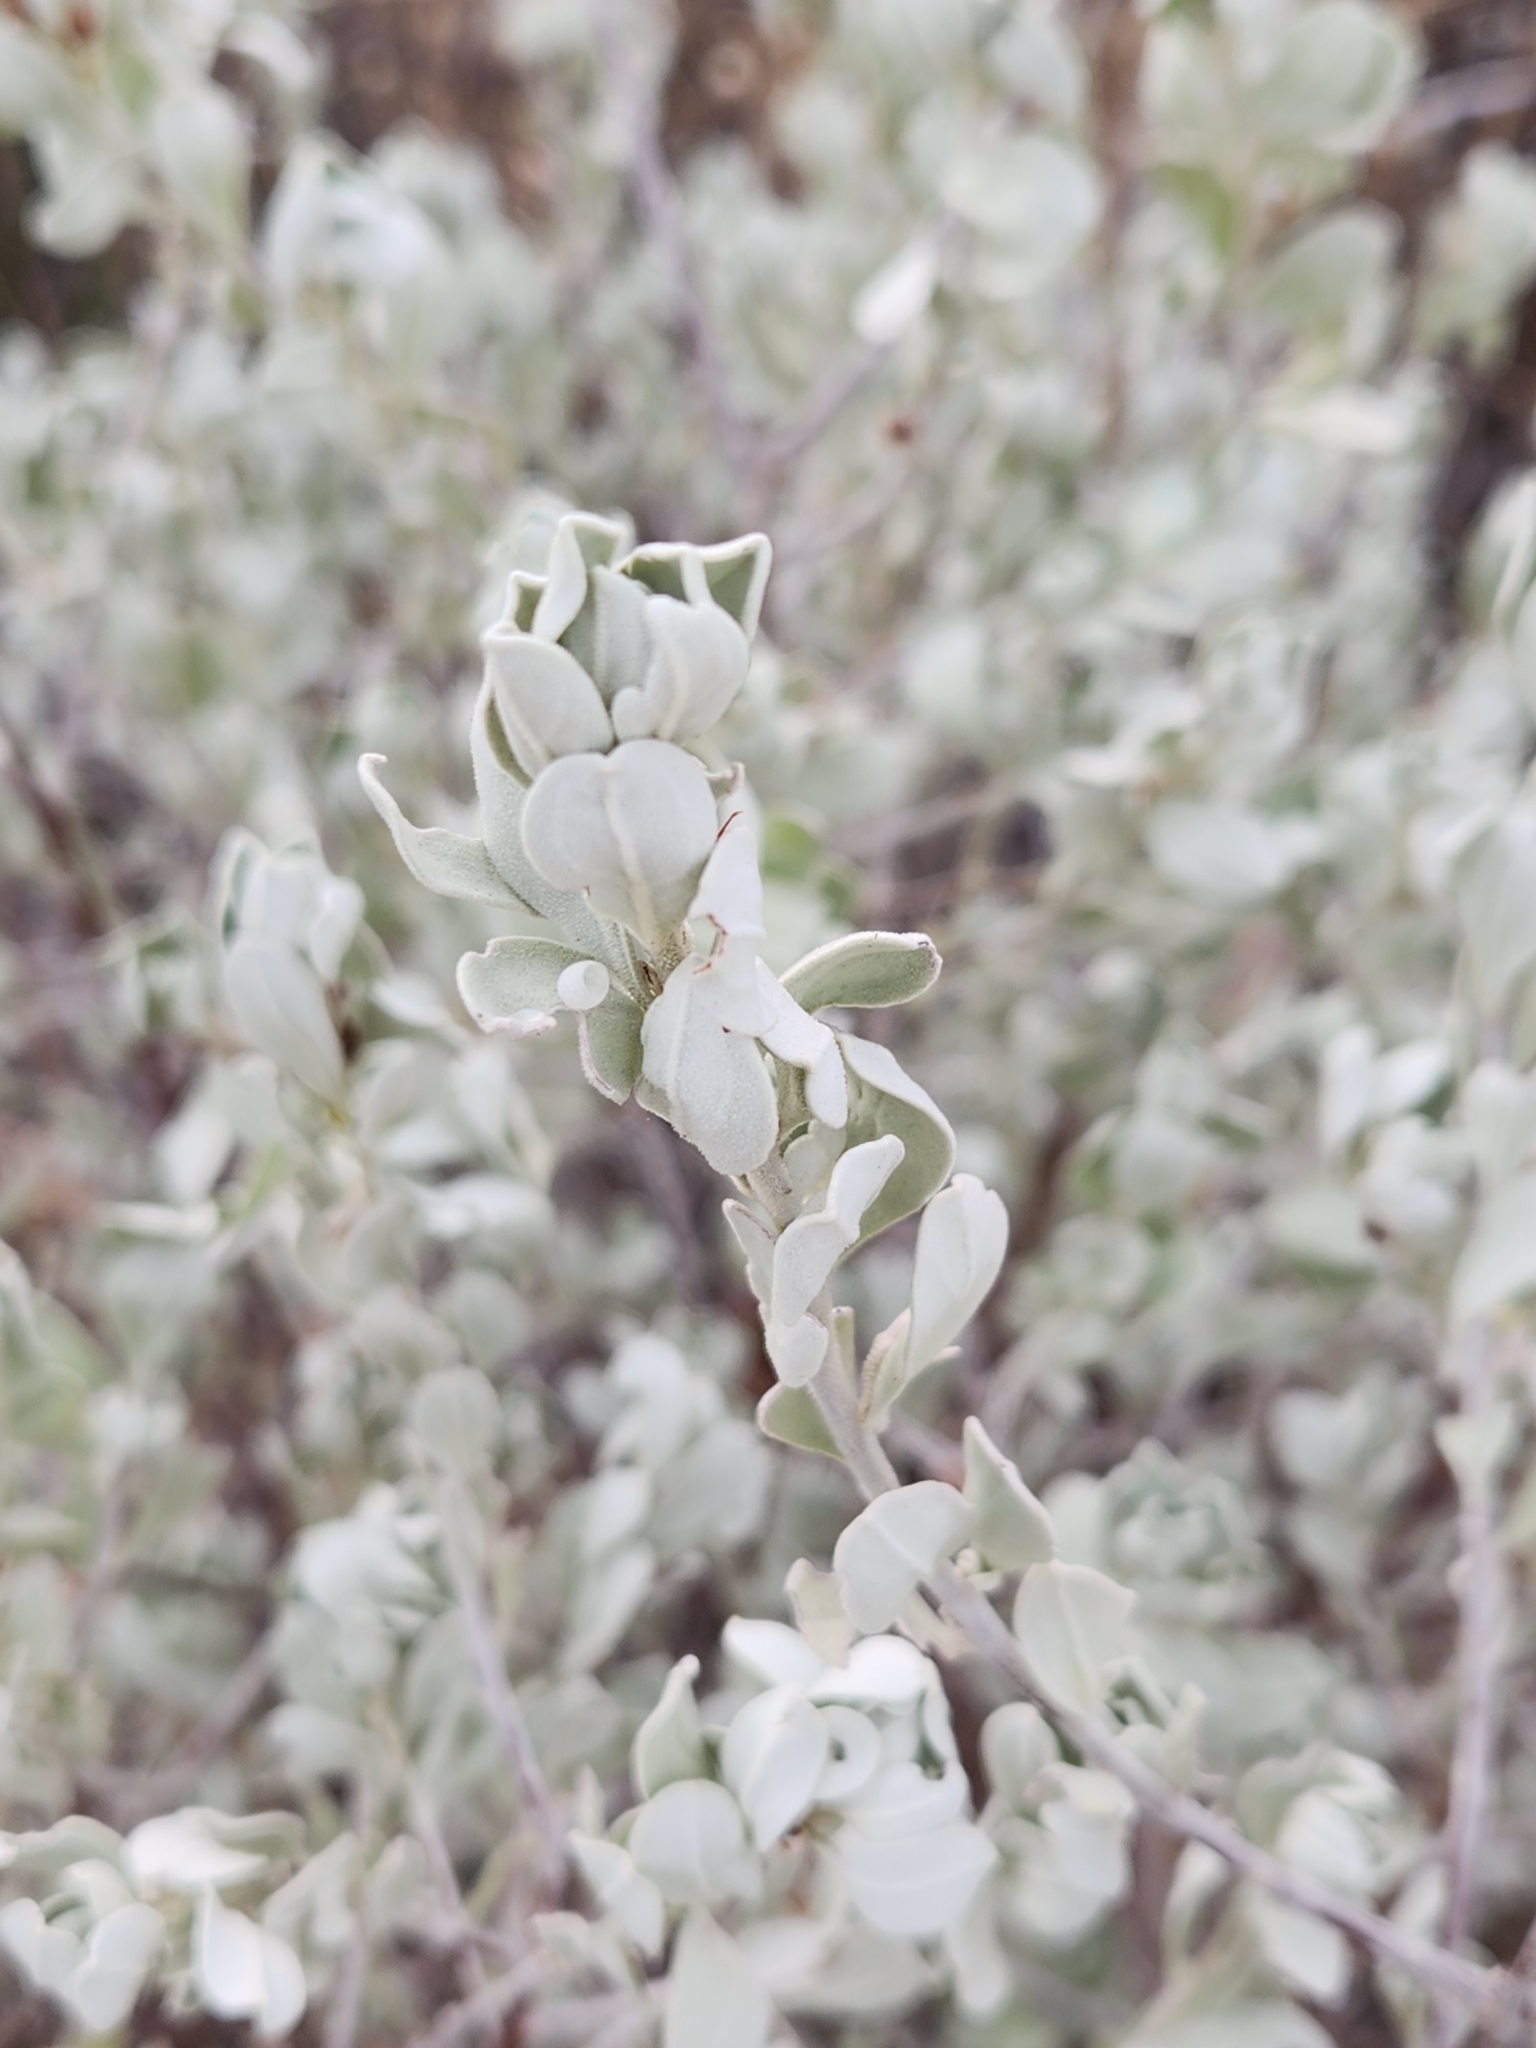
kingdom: Plantae
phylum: Tracheophyta
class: Magnoliopsida
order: Lamiales
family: Scrophulariaceae
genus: Leucophyllum
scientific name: Leucophyllum frutescens
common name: Texas silverleaf
